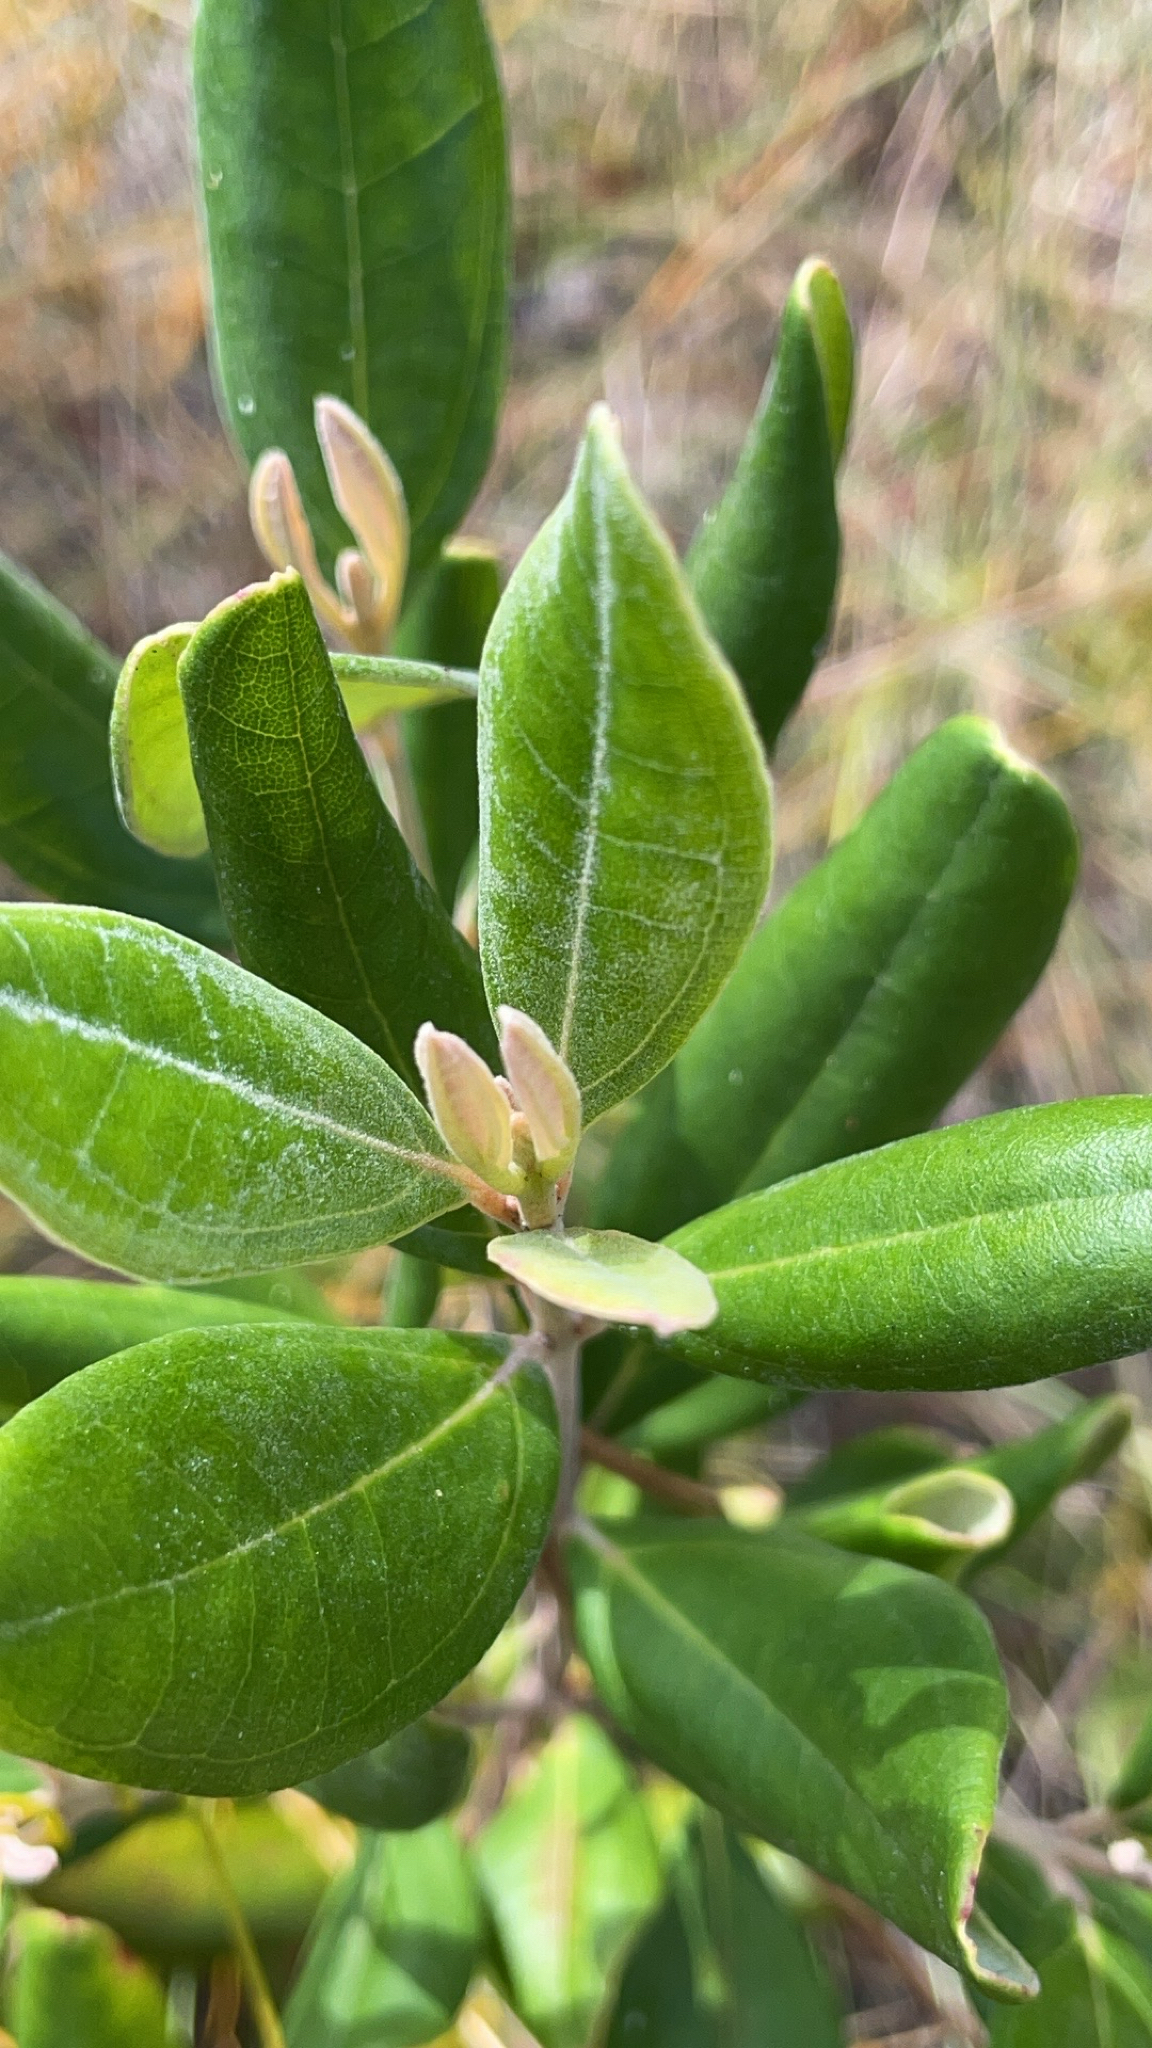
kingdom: Plantae
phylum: Tracheophyta
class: Magnoliopsida
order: Myrtales
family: Myrtaceae
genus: Rhodomyrtus
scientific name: Rhodomyrtus tomentosa
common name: Rose myrtle
